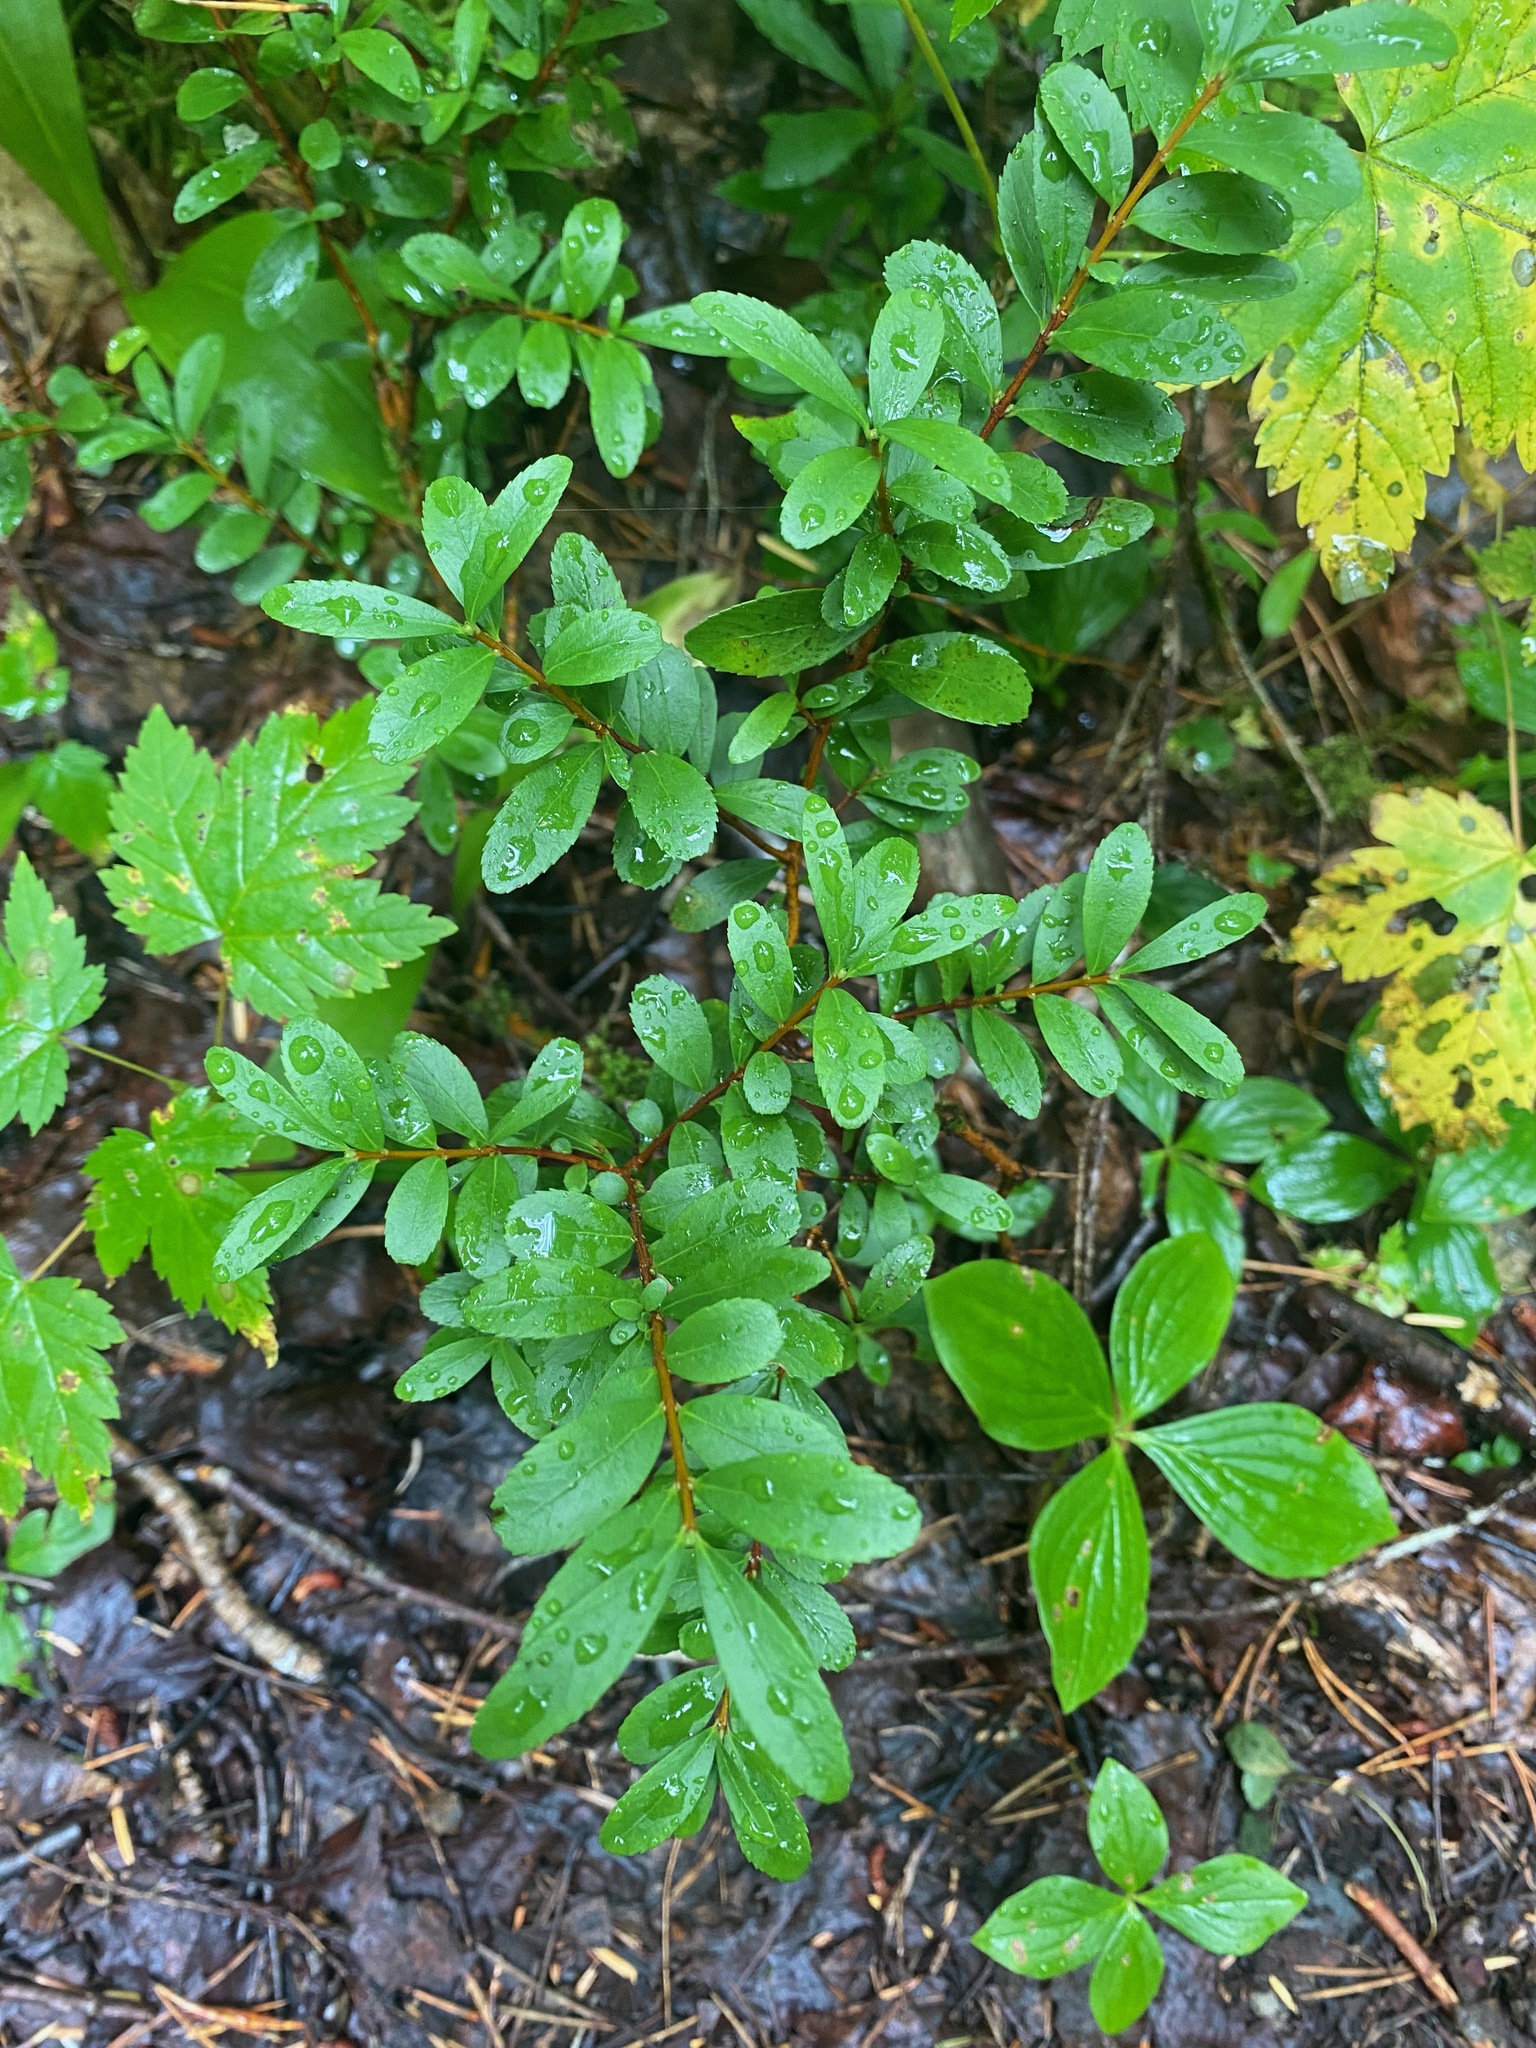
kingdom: Plantae
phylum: Tracheophyta
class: Magnoliopsida
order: Celastrales
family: Celastraceae
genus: Paxistima
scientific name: Paxistima myrsinites
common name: Mountain-lover
